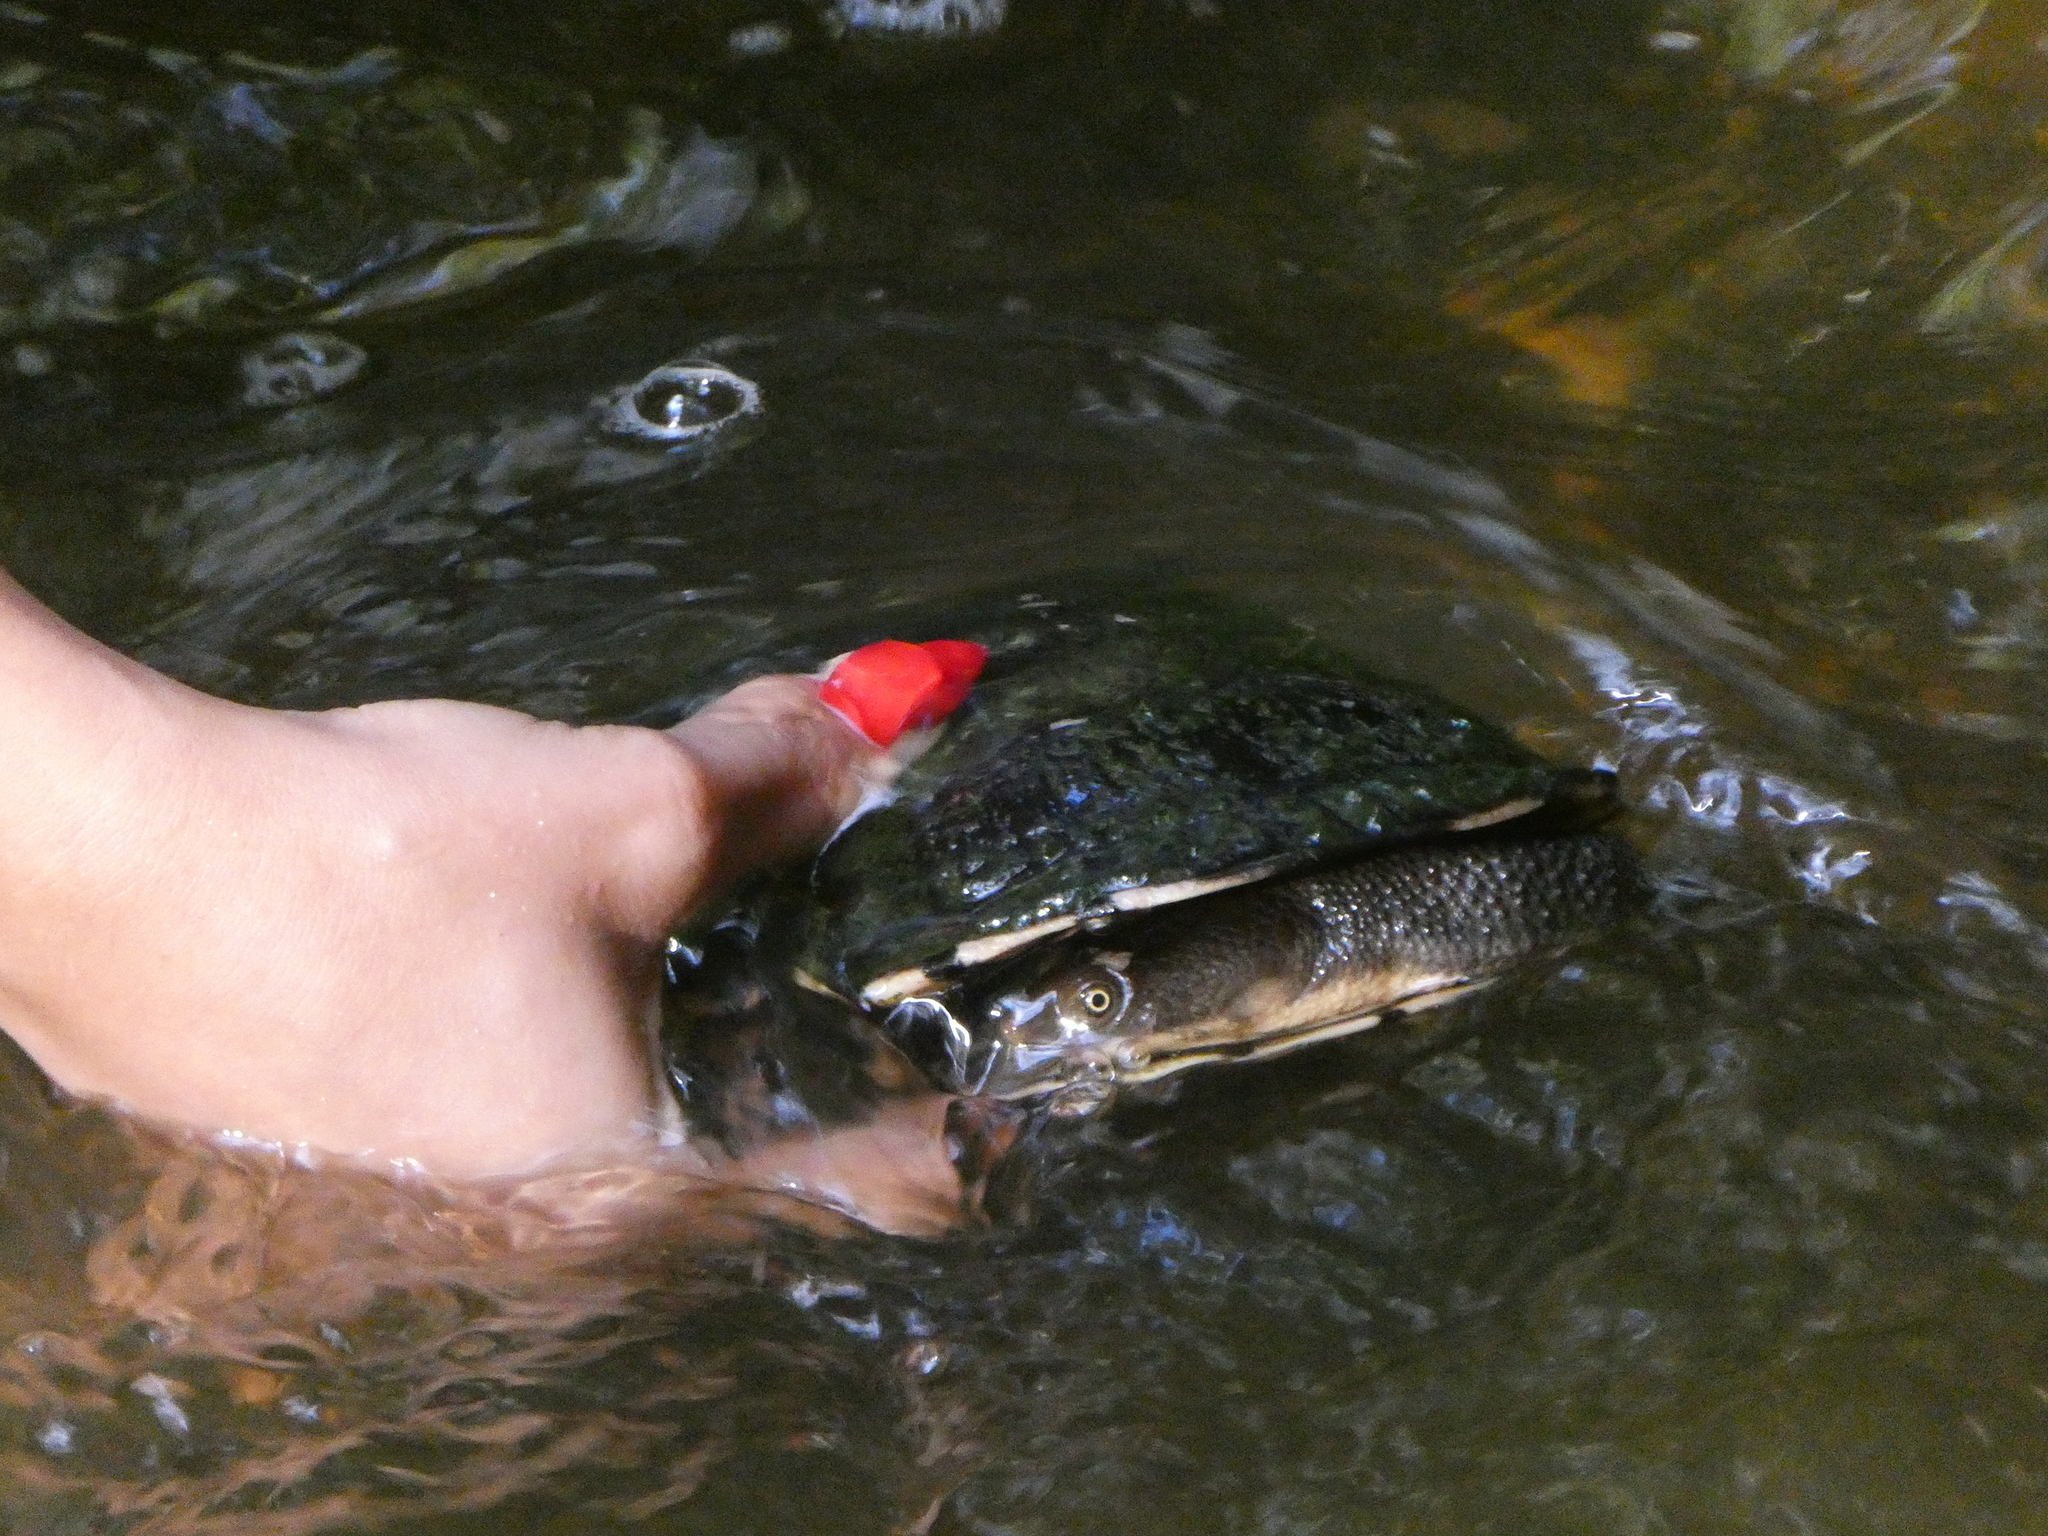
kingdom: Animalia
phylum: Chordata
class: Testudines
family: Chelidae
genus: Chelodina
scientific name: Chelodina longicollis
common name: Eastern snake-necked turtle
